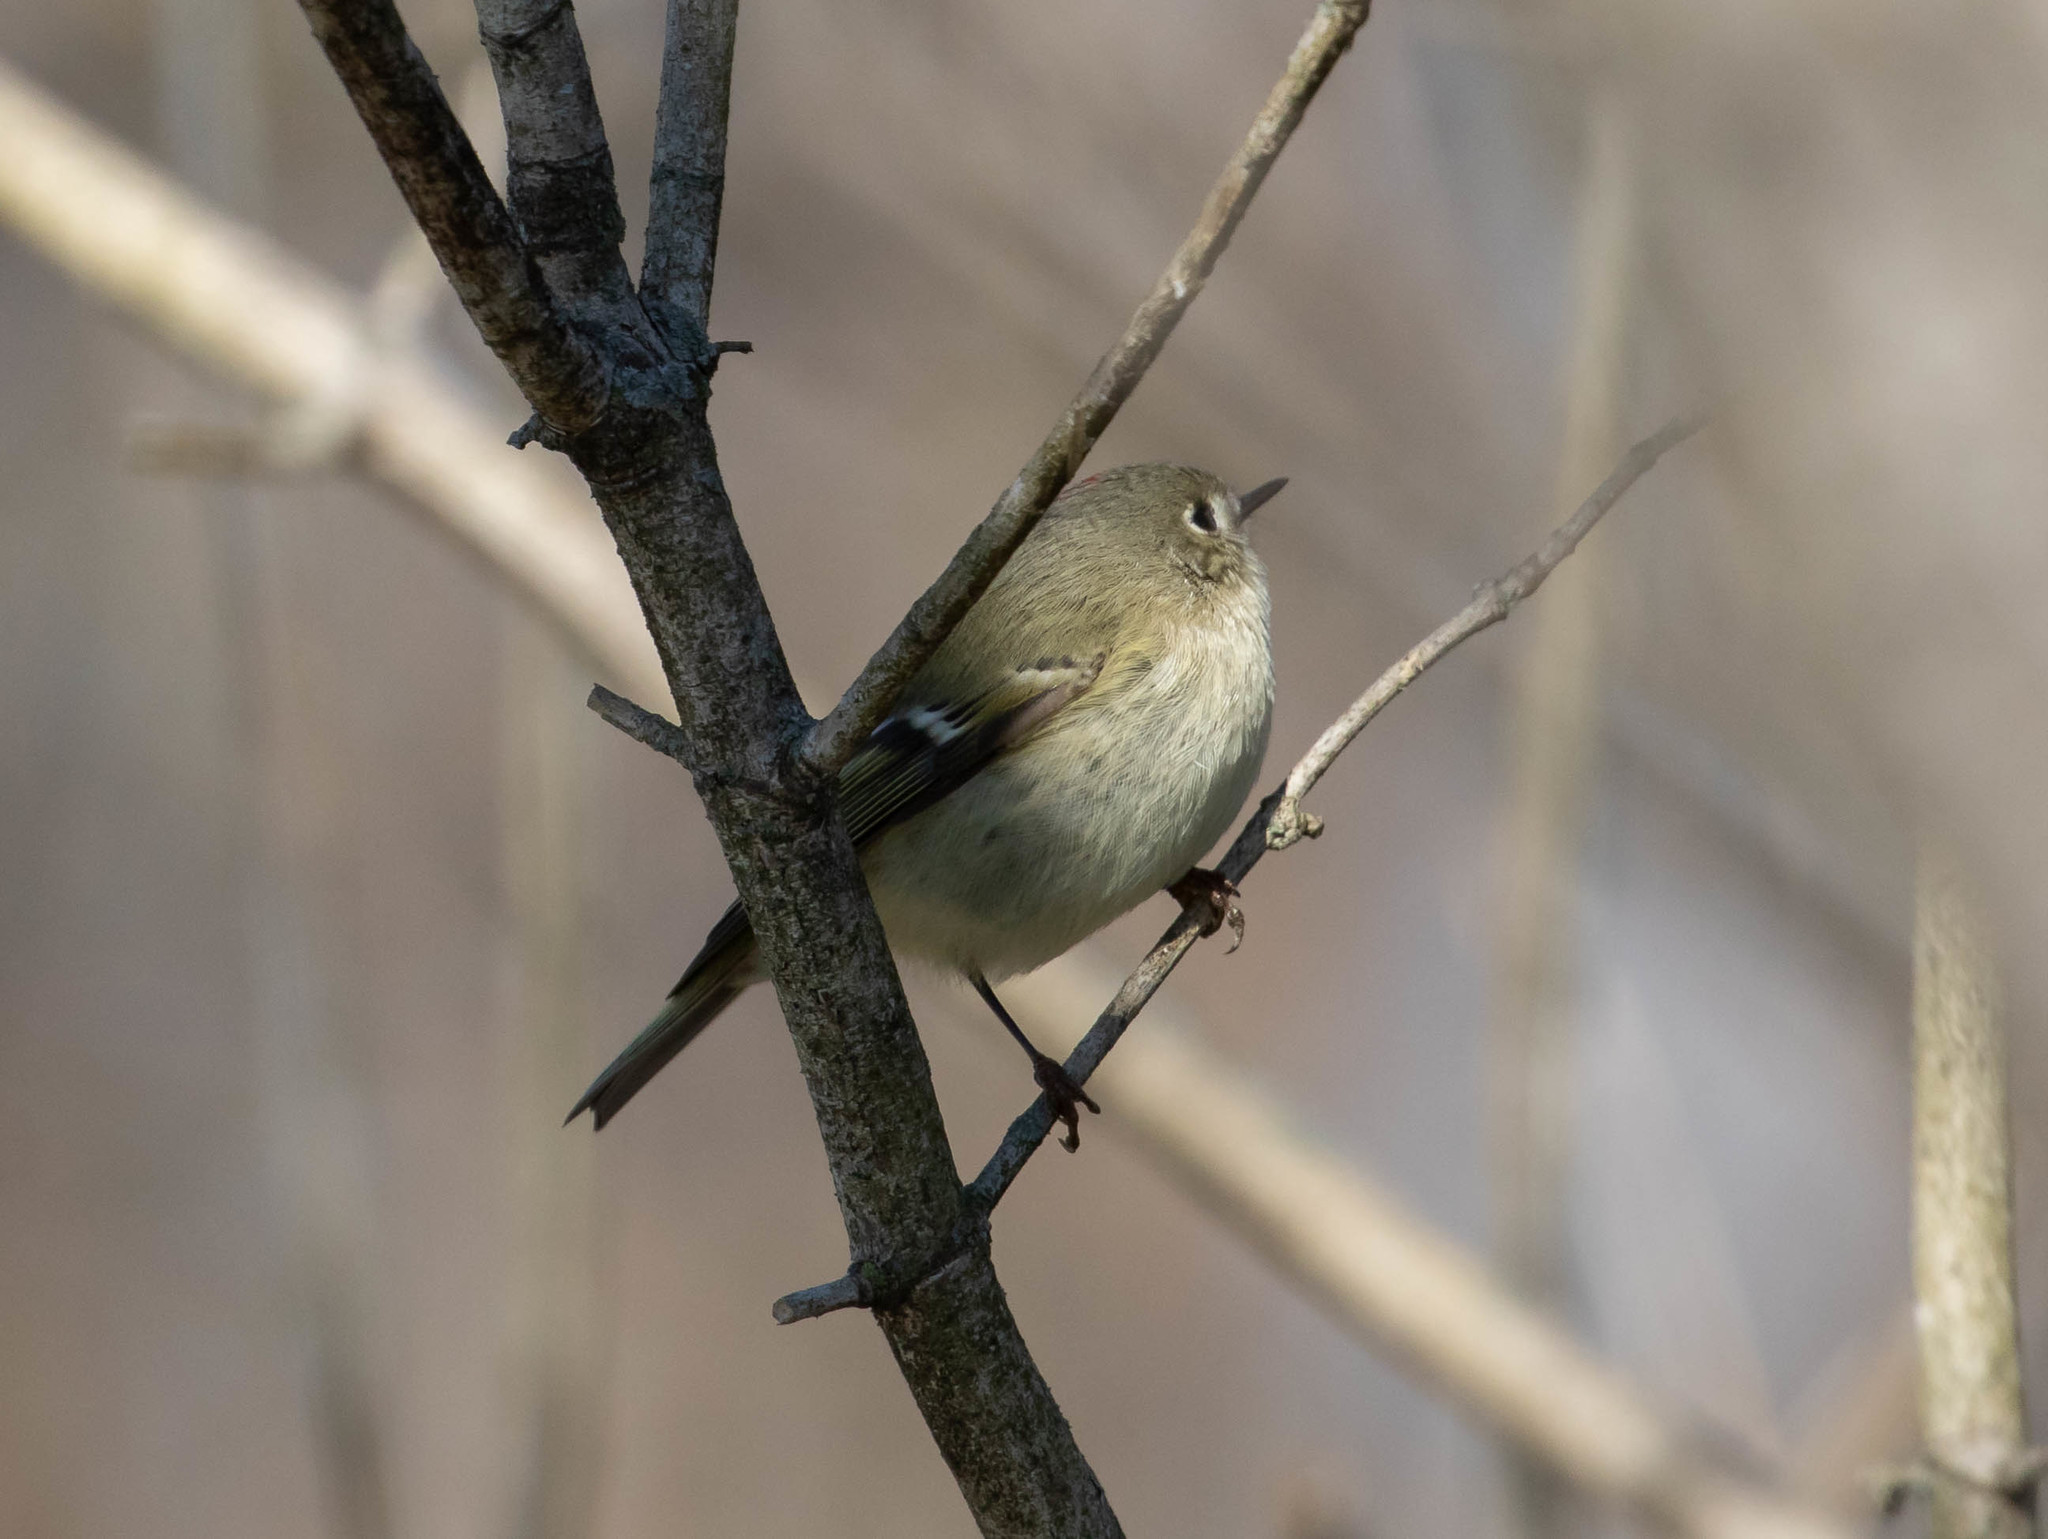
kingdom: Animalia
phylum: Chordata
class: Aves
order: Passeriformes
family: Regulidae
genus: Regulus
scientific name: Regulus calendula
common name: Ruby-crowned kinglet
